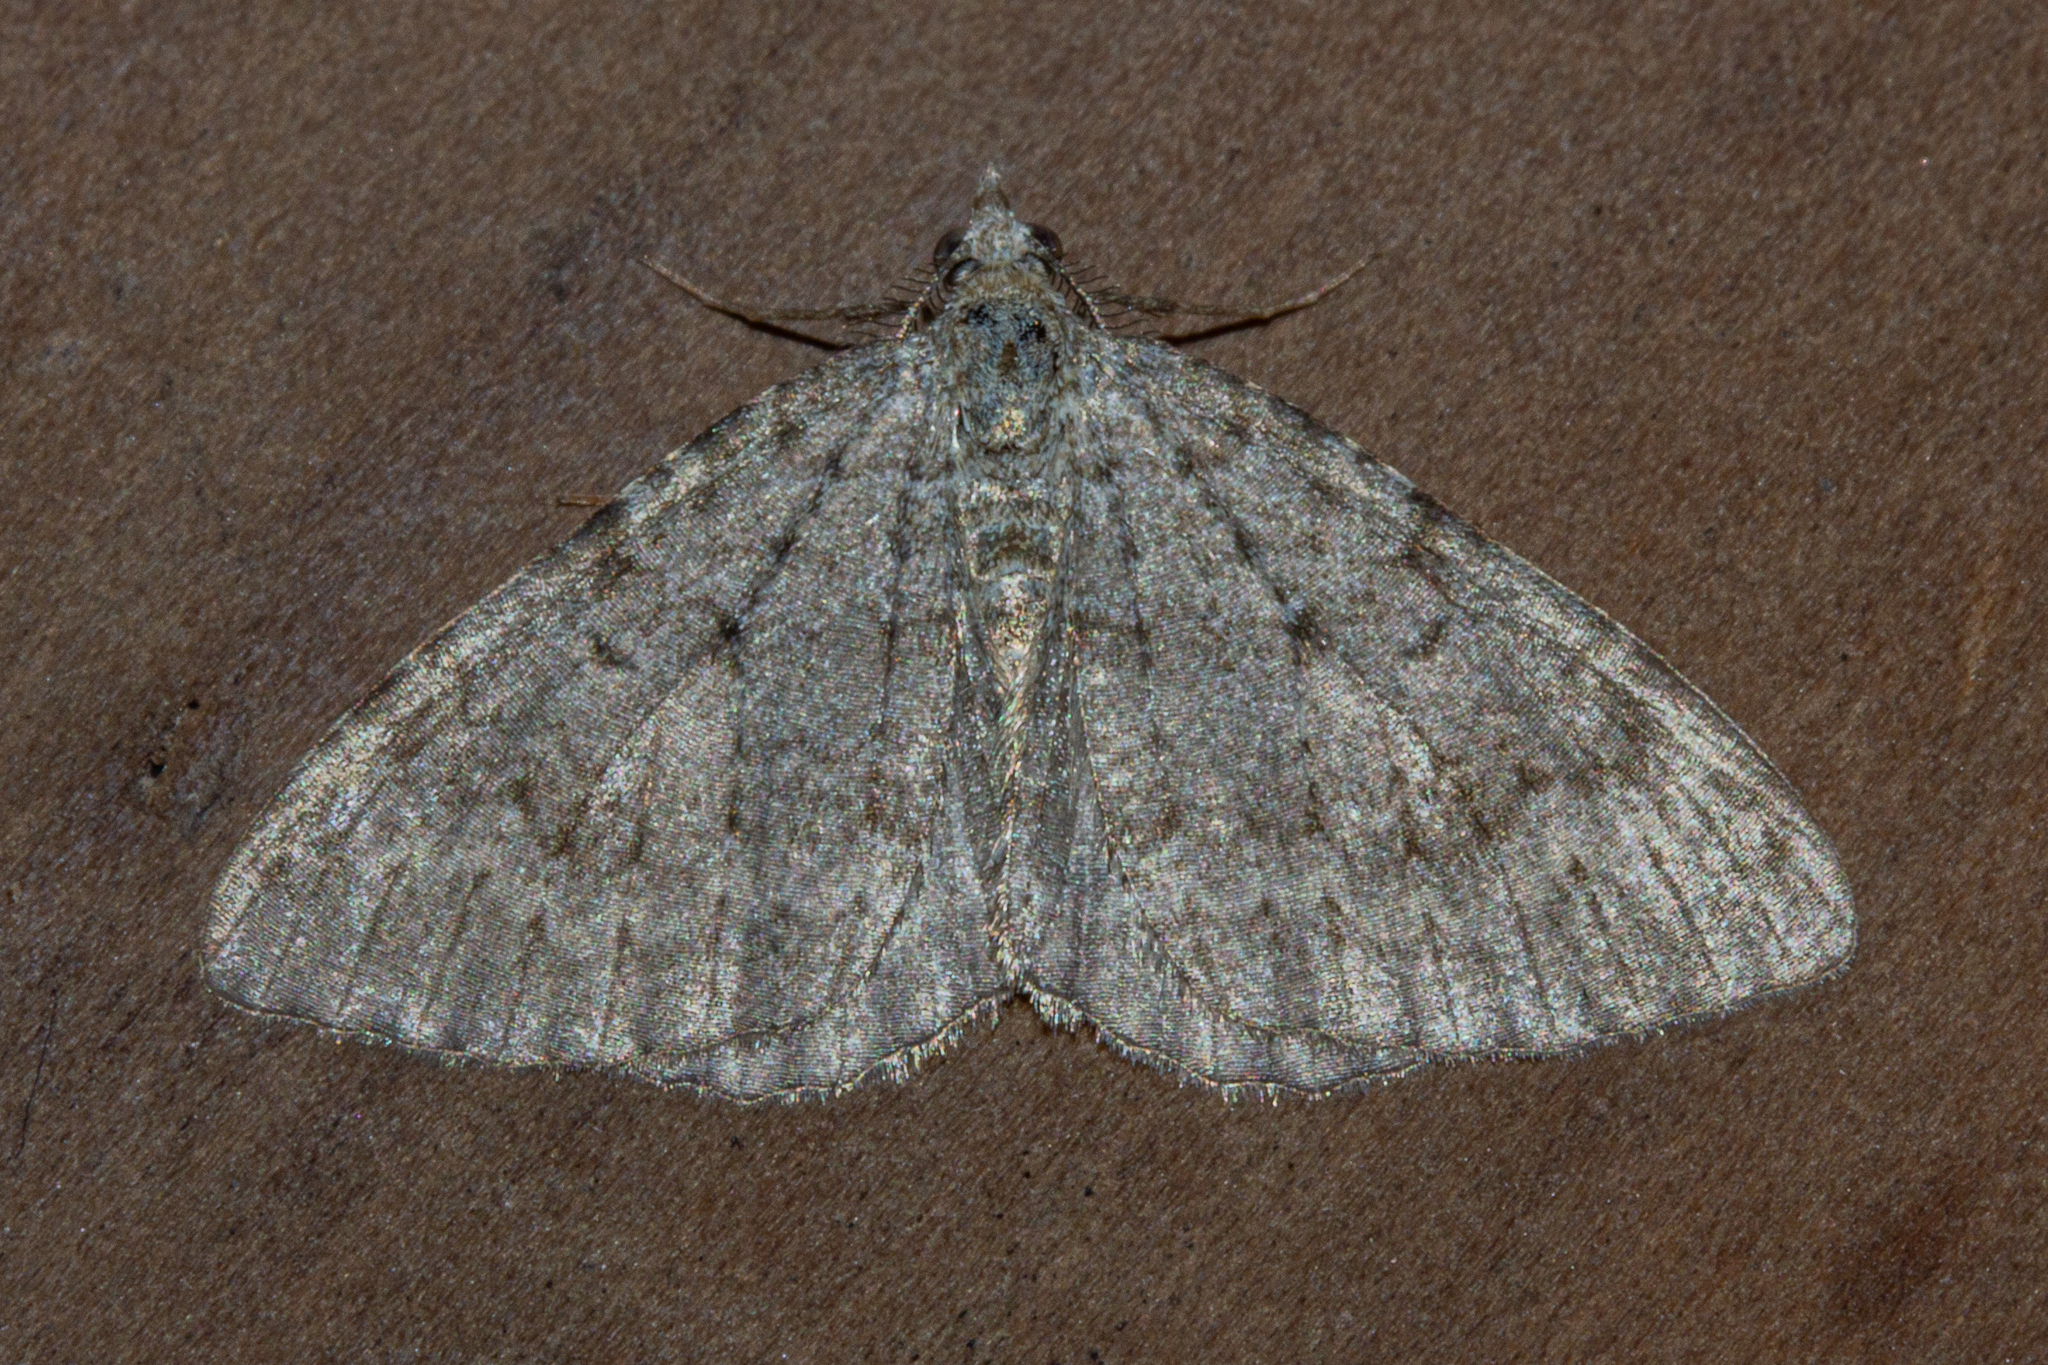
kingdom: Animalia
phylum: Arthropoda
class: Insecta
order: Lepidoptera
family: Geometridae
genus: Helastia
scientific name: Helastia corcularia
